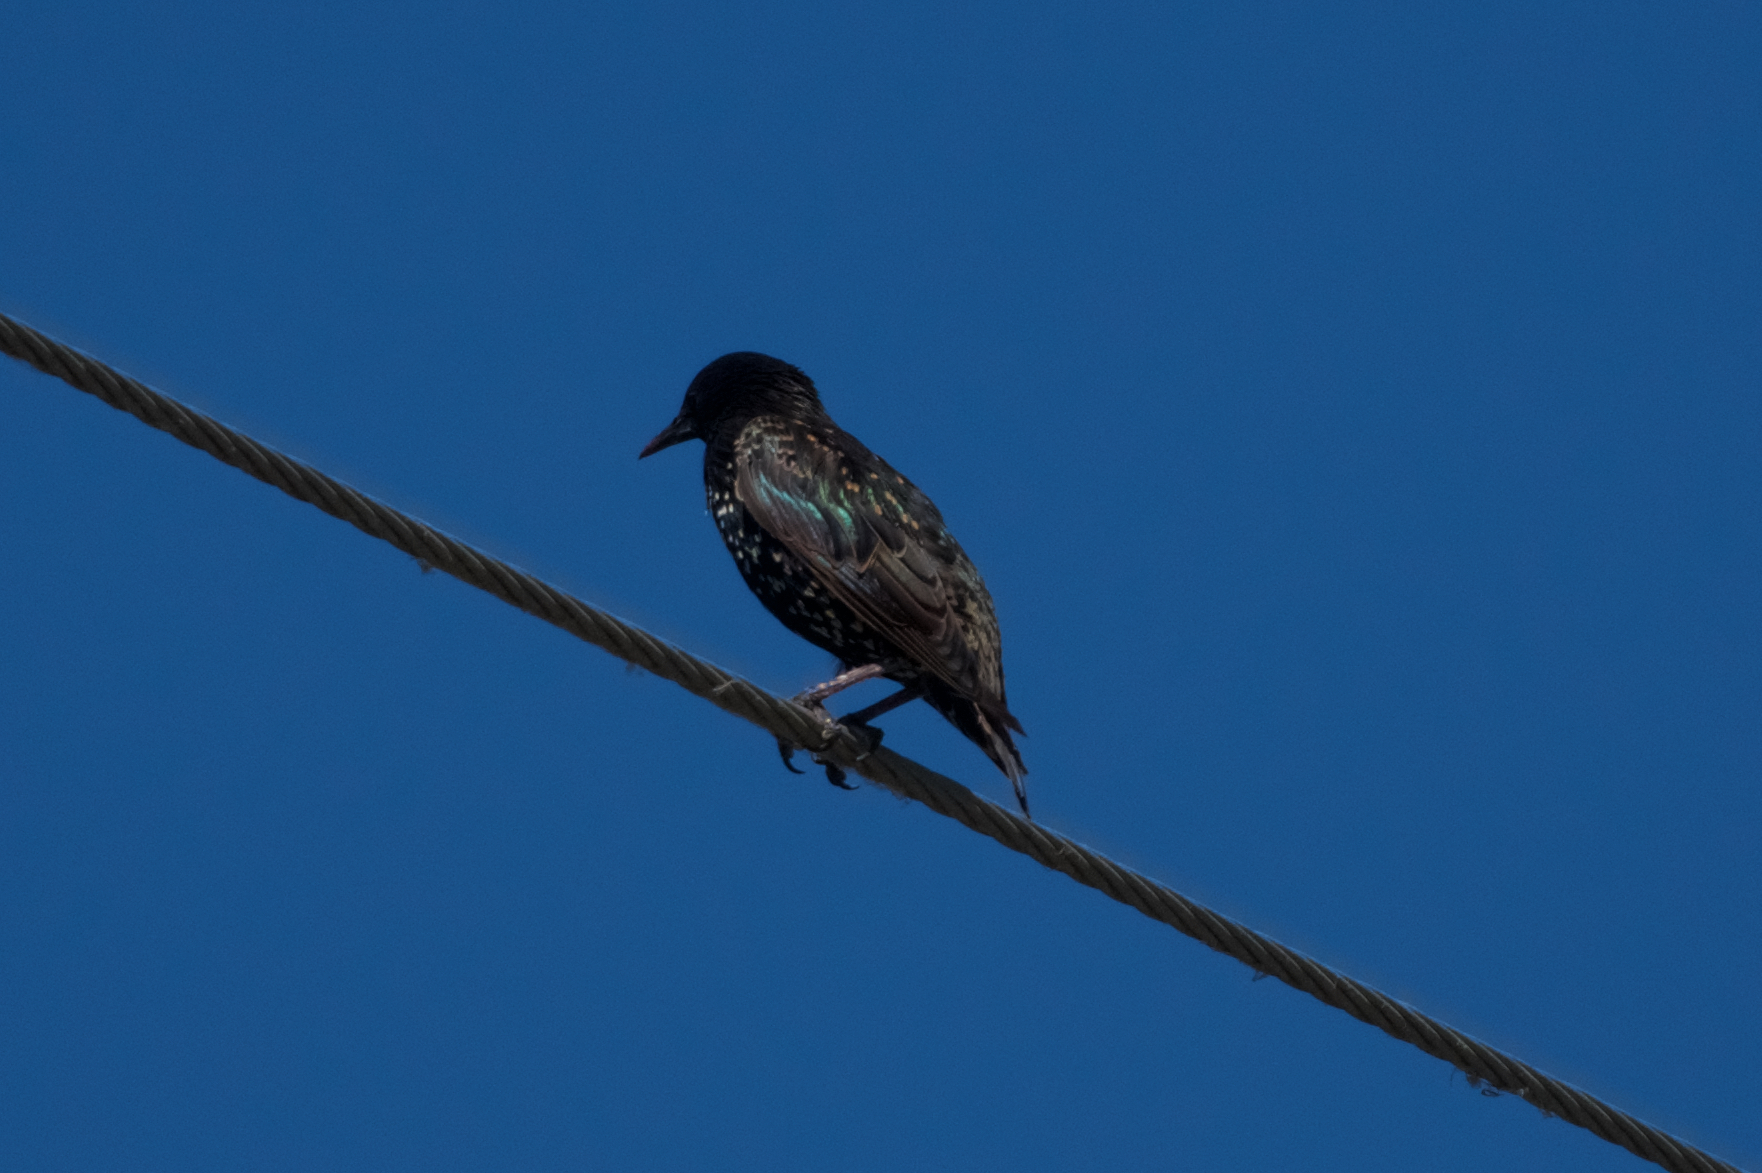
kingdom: Animalia
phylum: Chordata
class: Aves
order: Passeriformes
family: Sturnidae
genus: Sturnus
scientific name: Sturnus vulgaris
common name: Common starling
